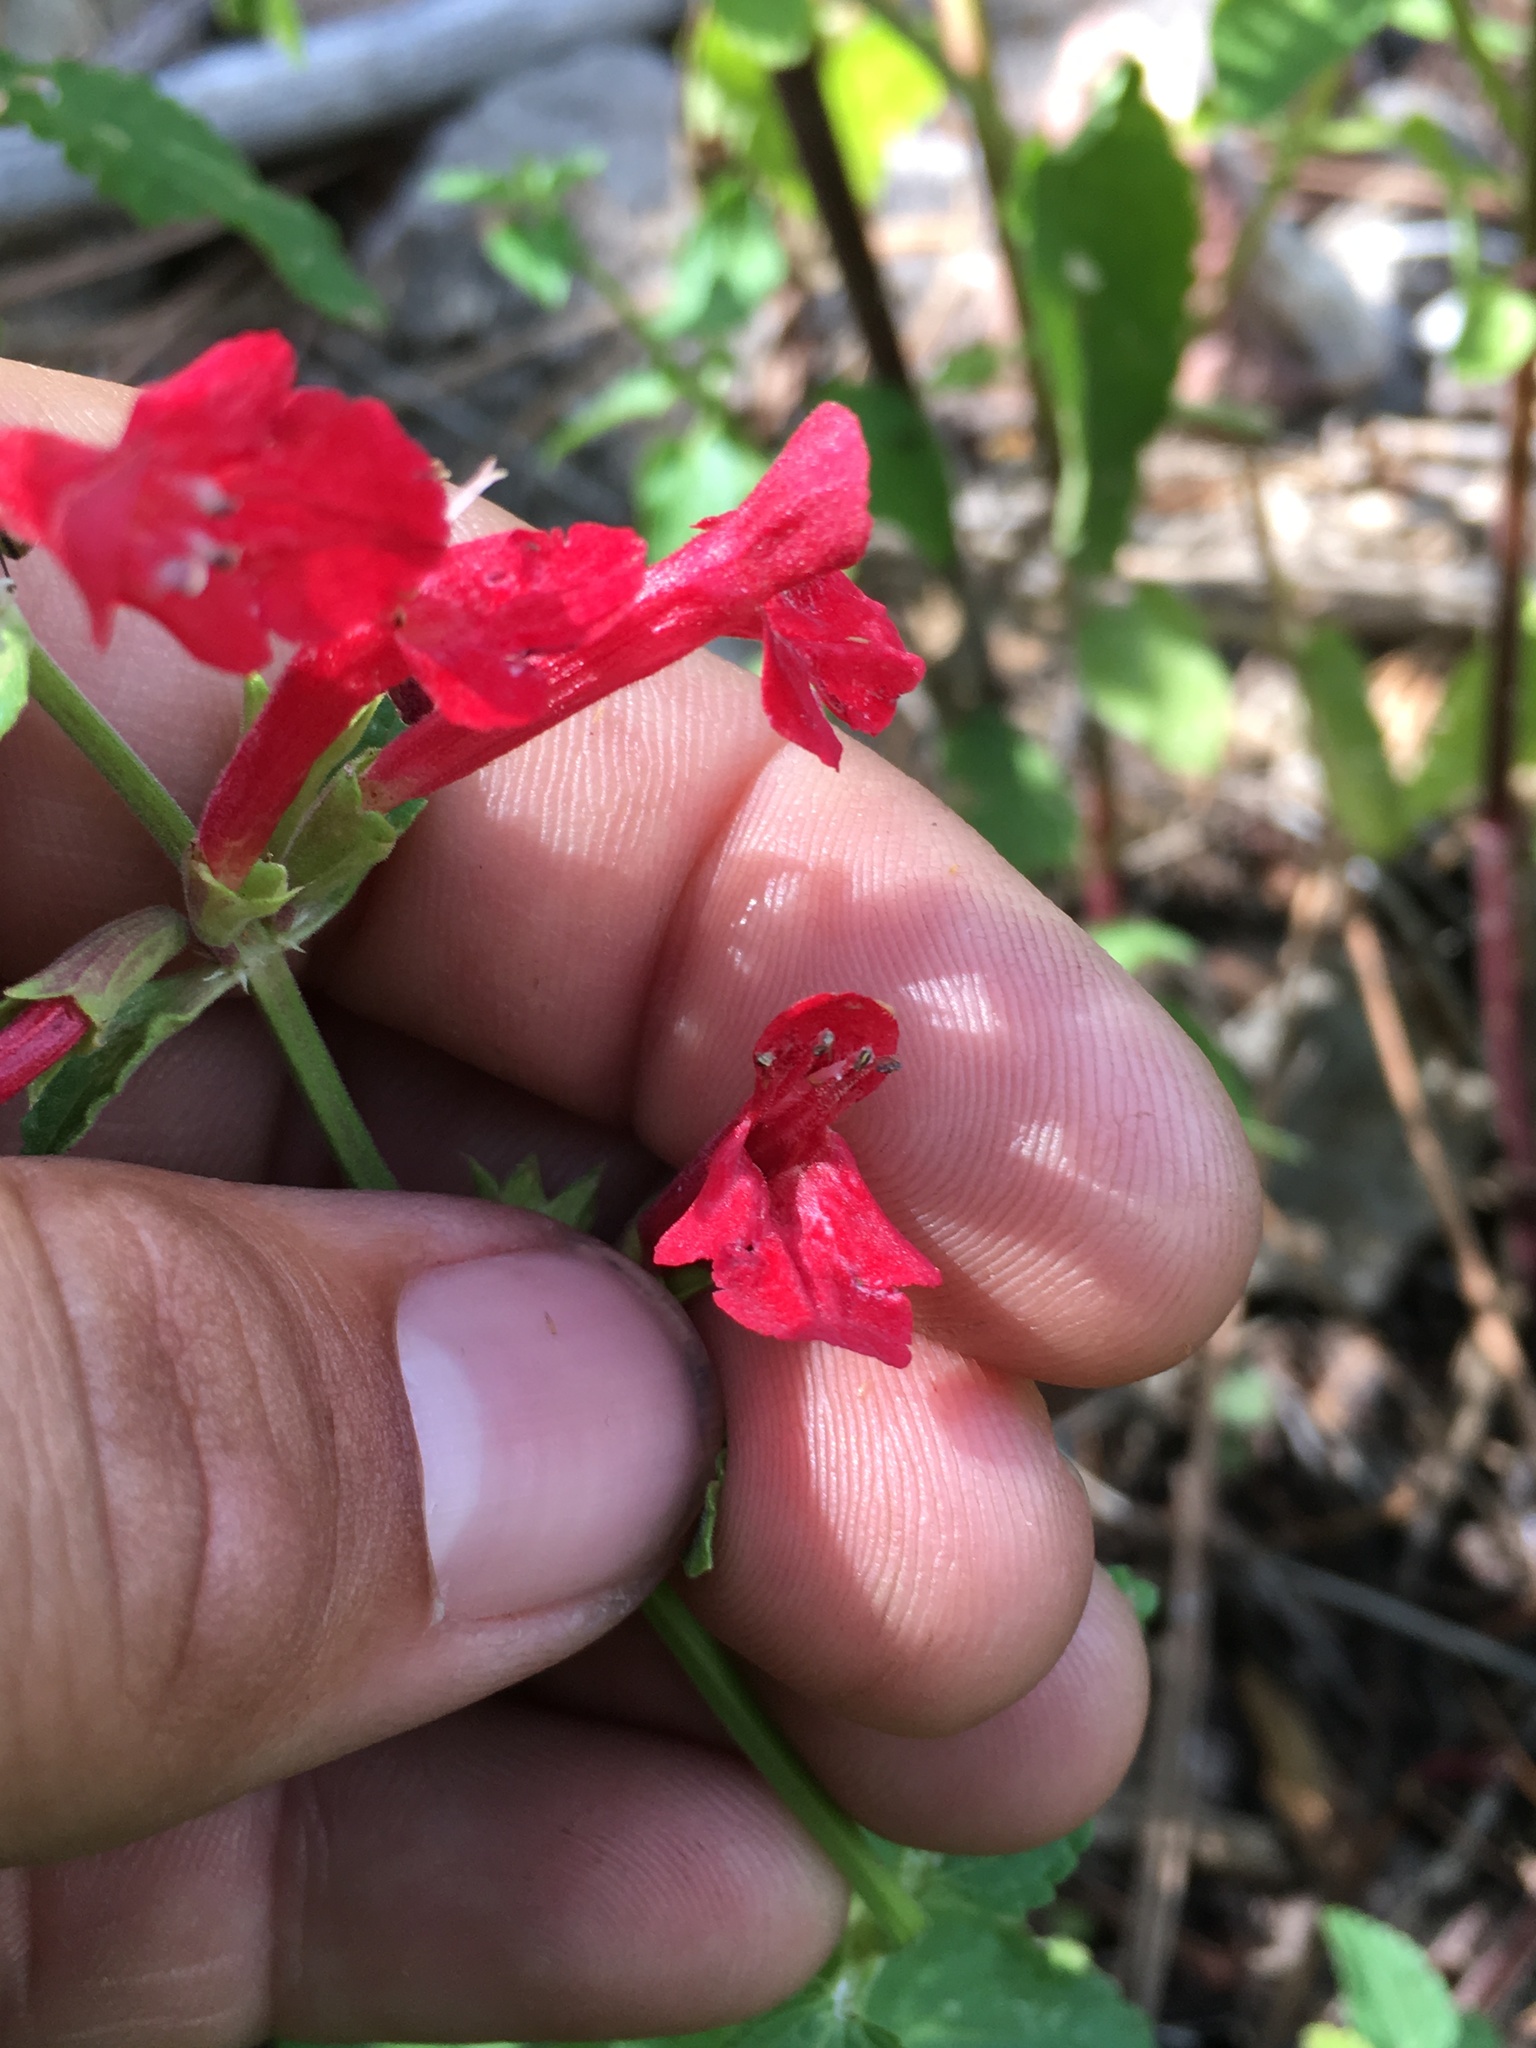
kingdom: Plantae
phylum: Tracheophyta
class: Magnoliopsida
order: Lamiales
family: Lamiaceae
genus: Stachys
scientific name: Stachys coccinea
